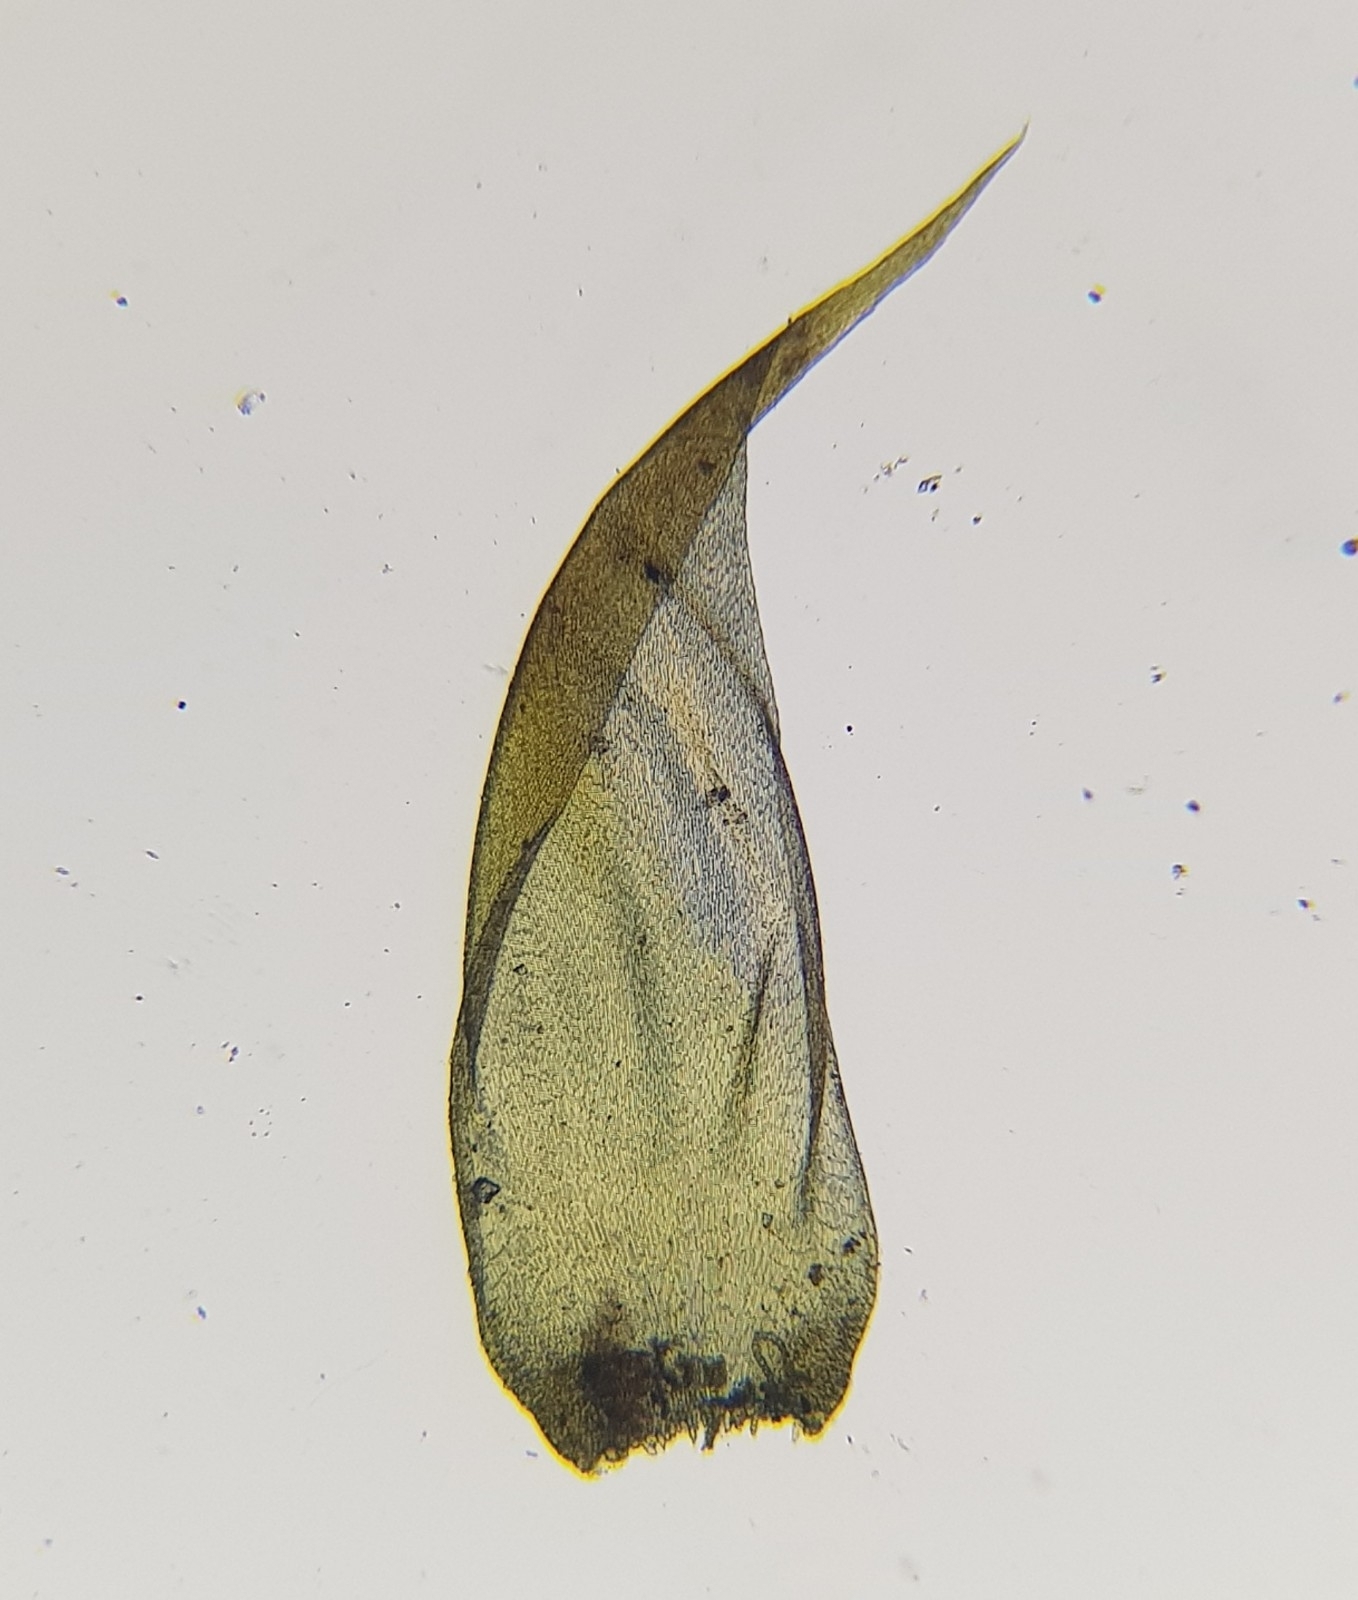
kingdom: Plantae
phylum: Bryophyta
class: Bryopsida
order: Hypnales
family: Hypnaceae
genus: Hypnum
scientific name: Hypnum cupressiforme
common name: Cypress-leaved plait-moss
